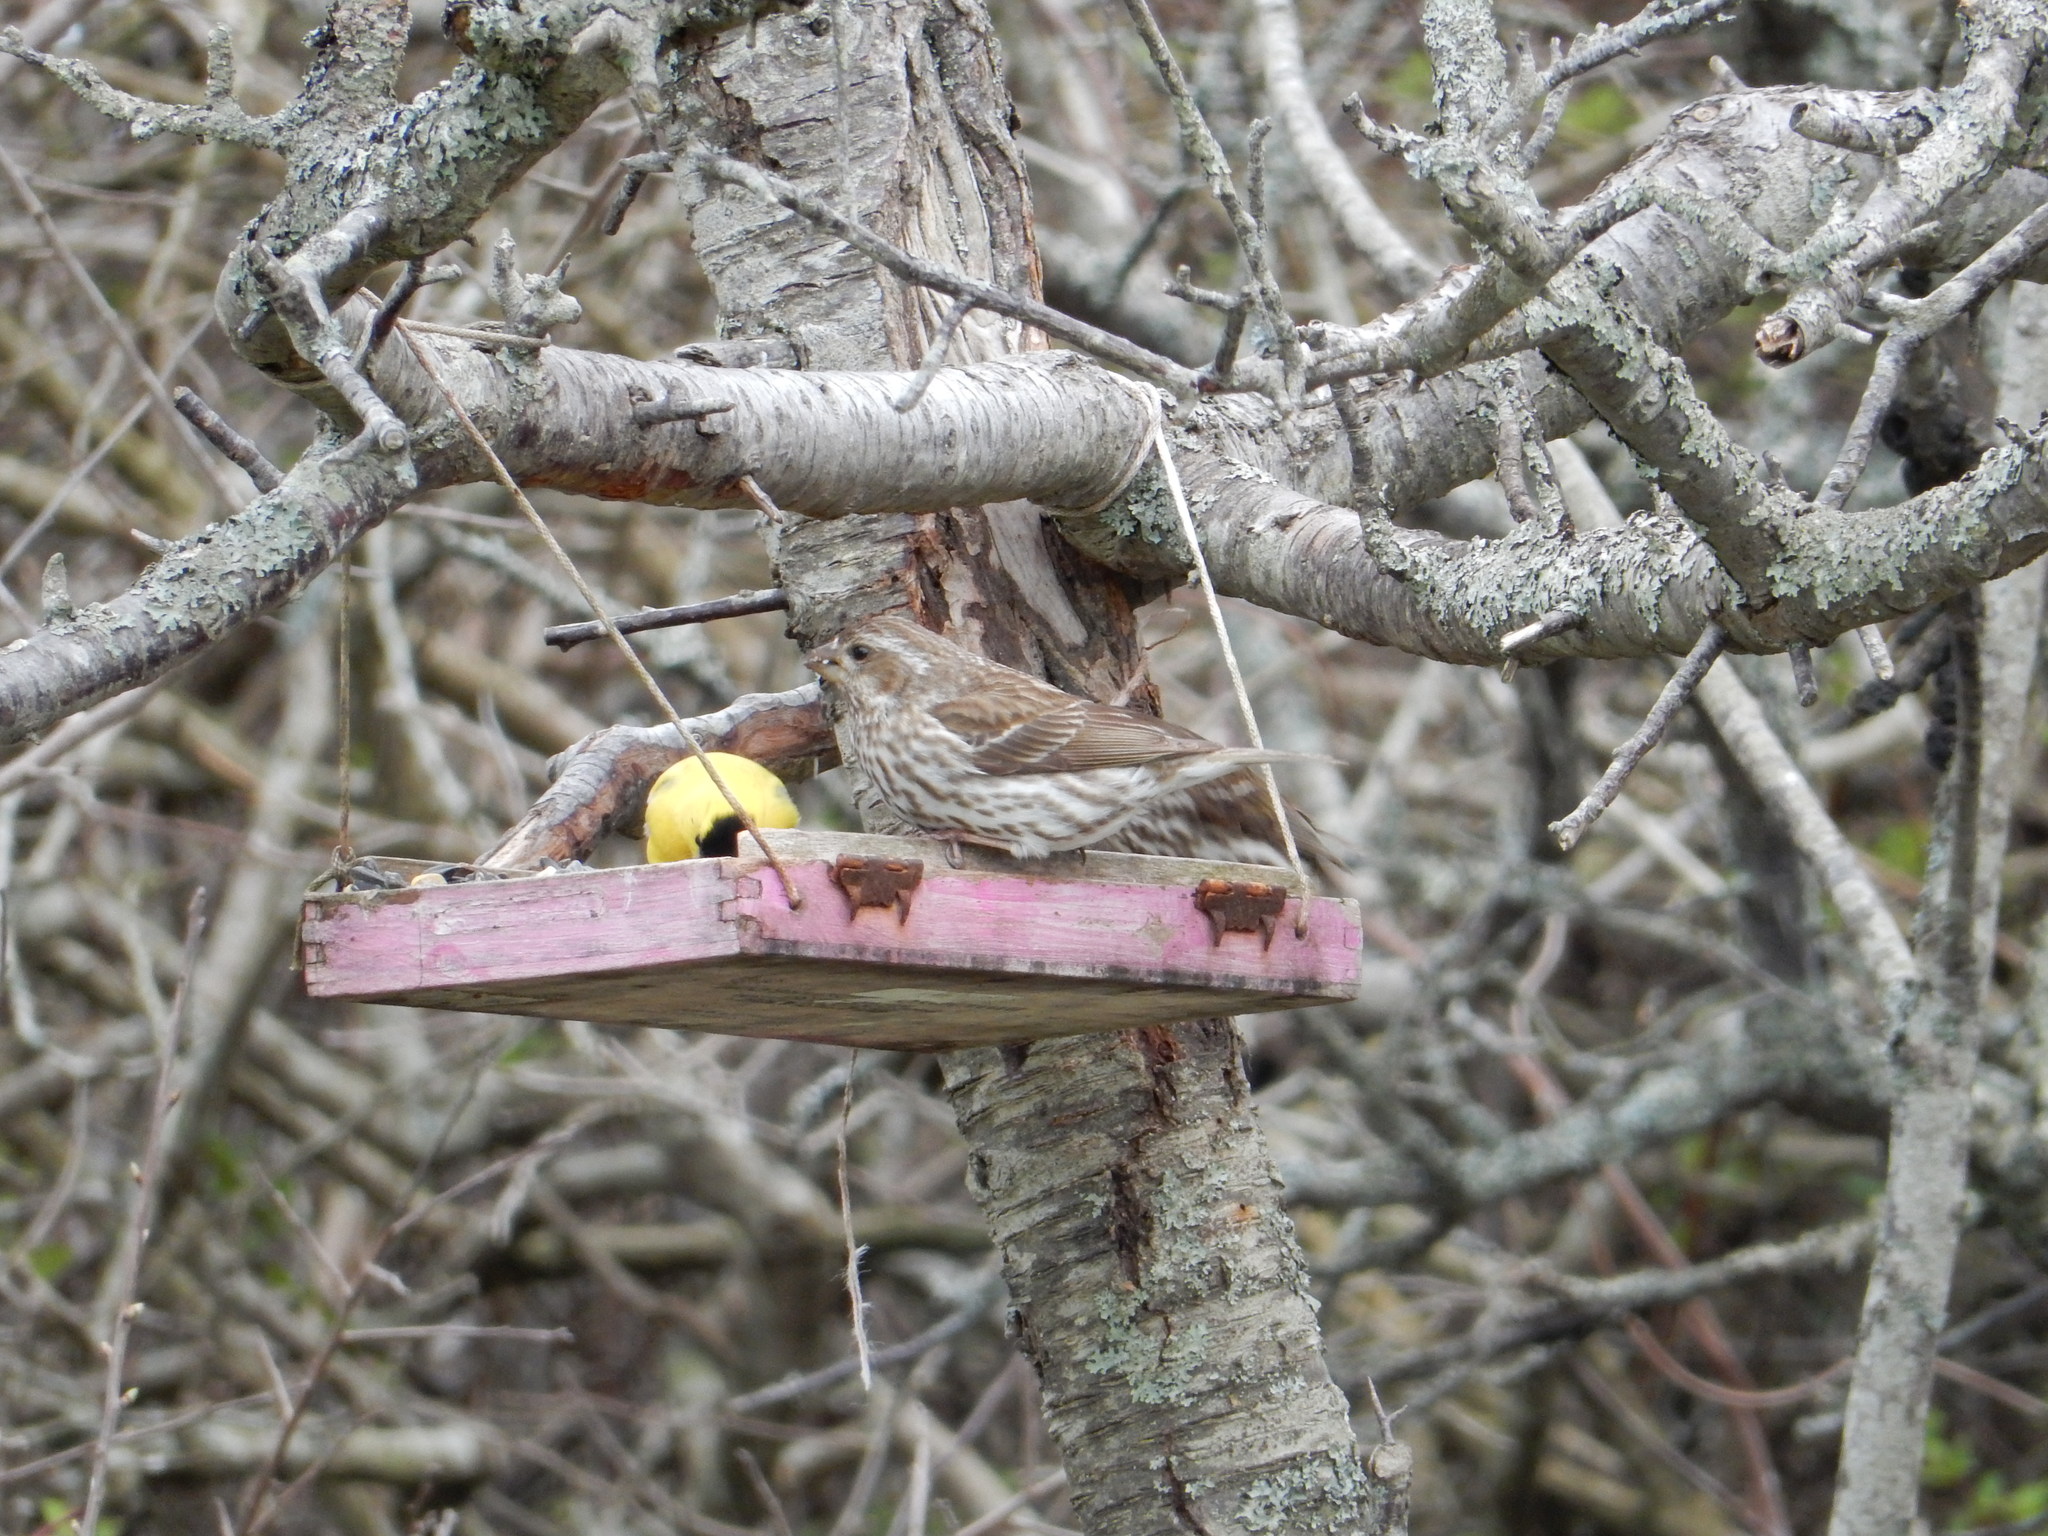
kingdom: Animalia
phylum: Chordata
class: Aves
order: Passeriformes
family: Fringillidae
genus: Haemorhous
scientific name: Haemorhous purpureus
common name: Purple finch
